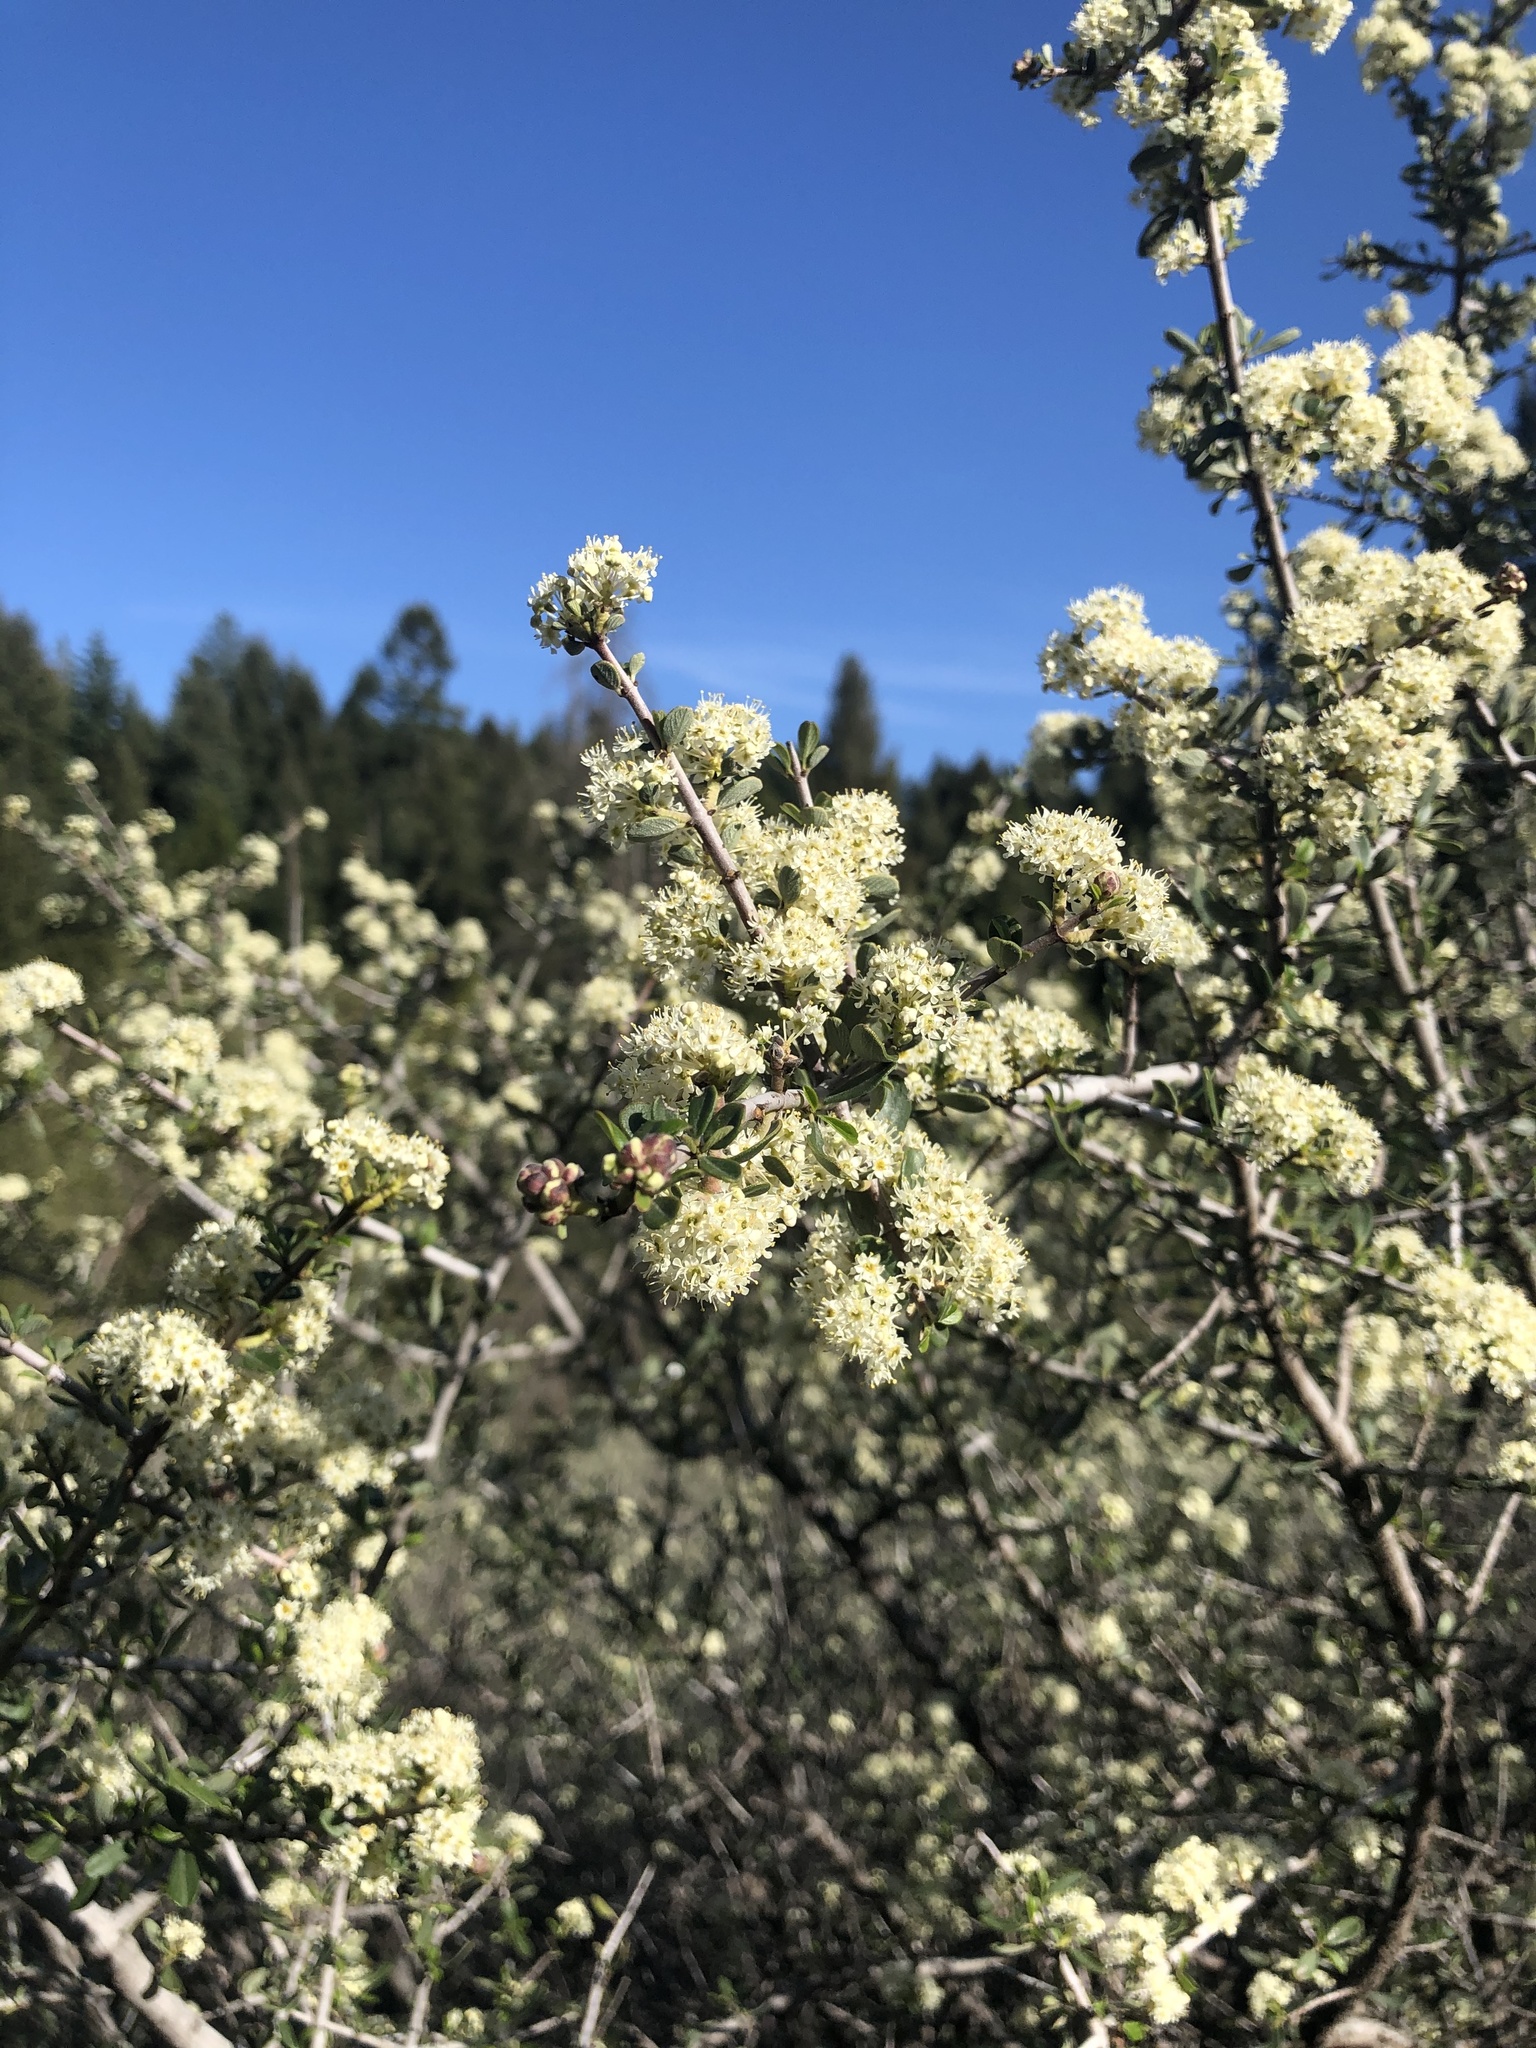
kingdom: Plantae
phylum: Tracheophyta
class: Magnoliopsida
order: Rosales
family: Rhamnaceae
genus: Ceanothus
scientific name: Ceanothus cuneatus
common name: Cuneate ceanothus
